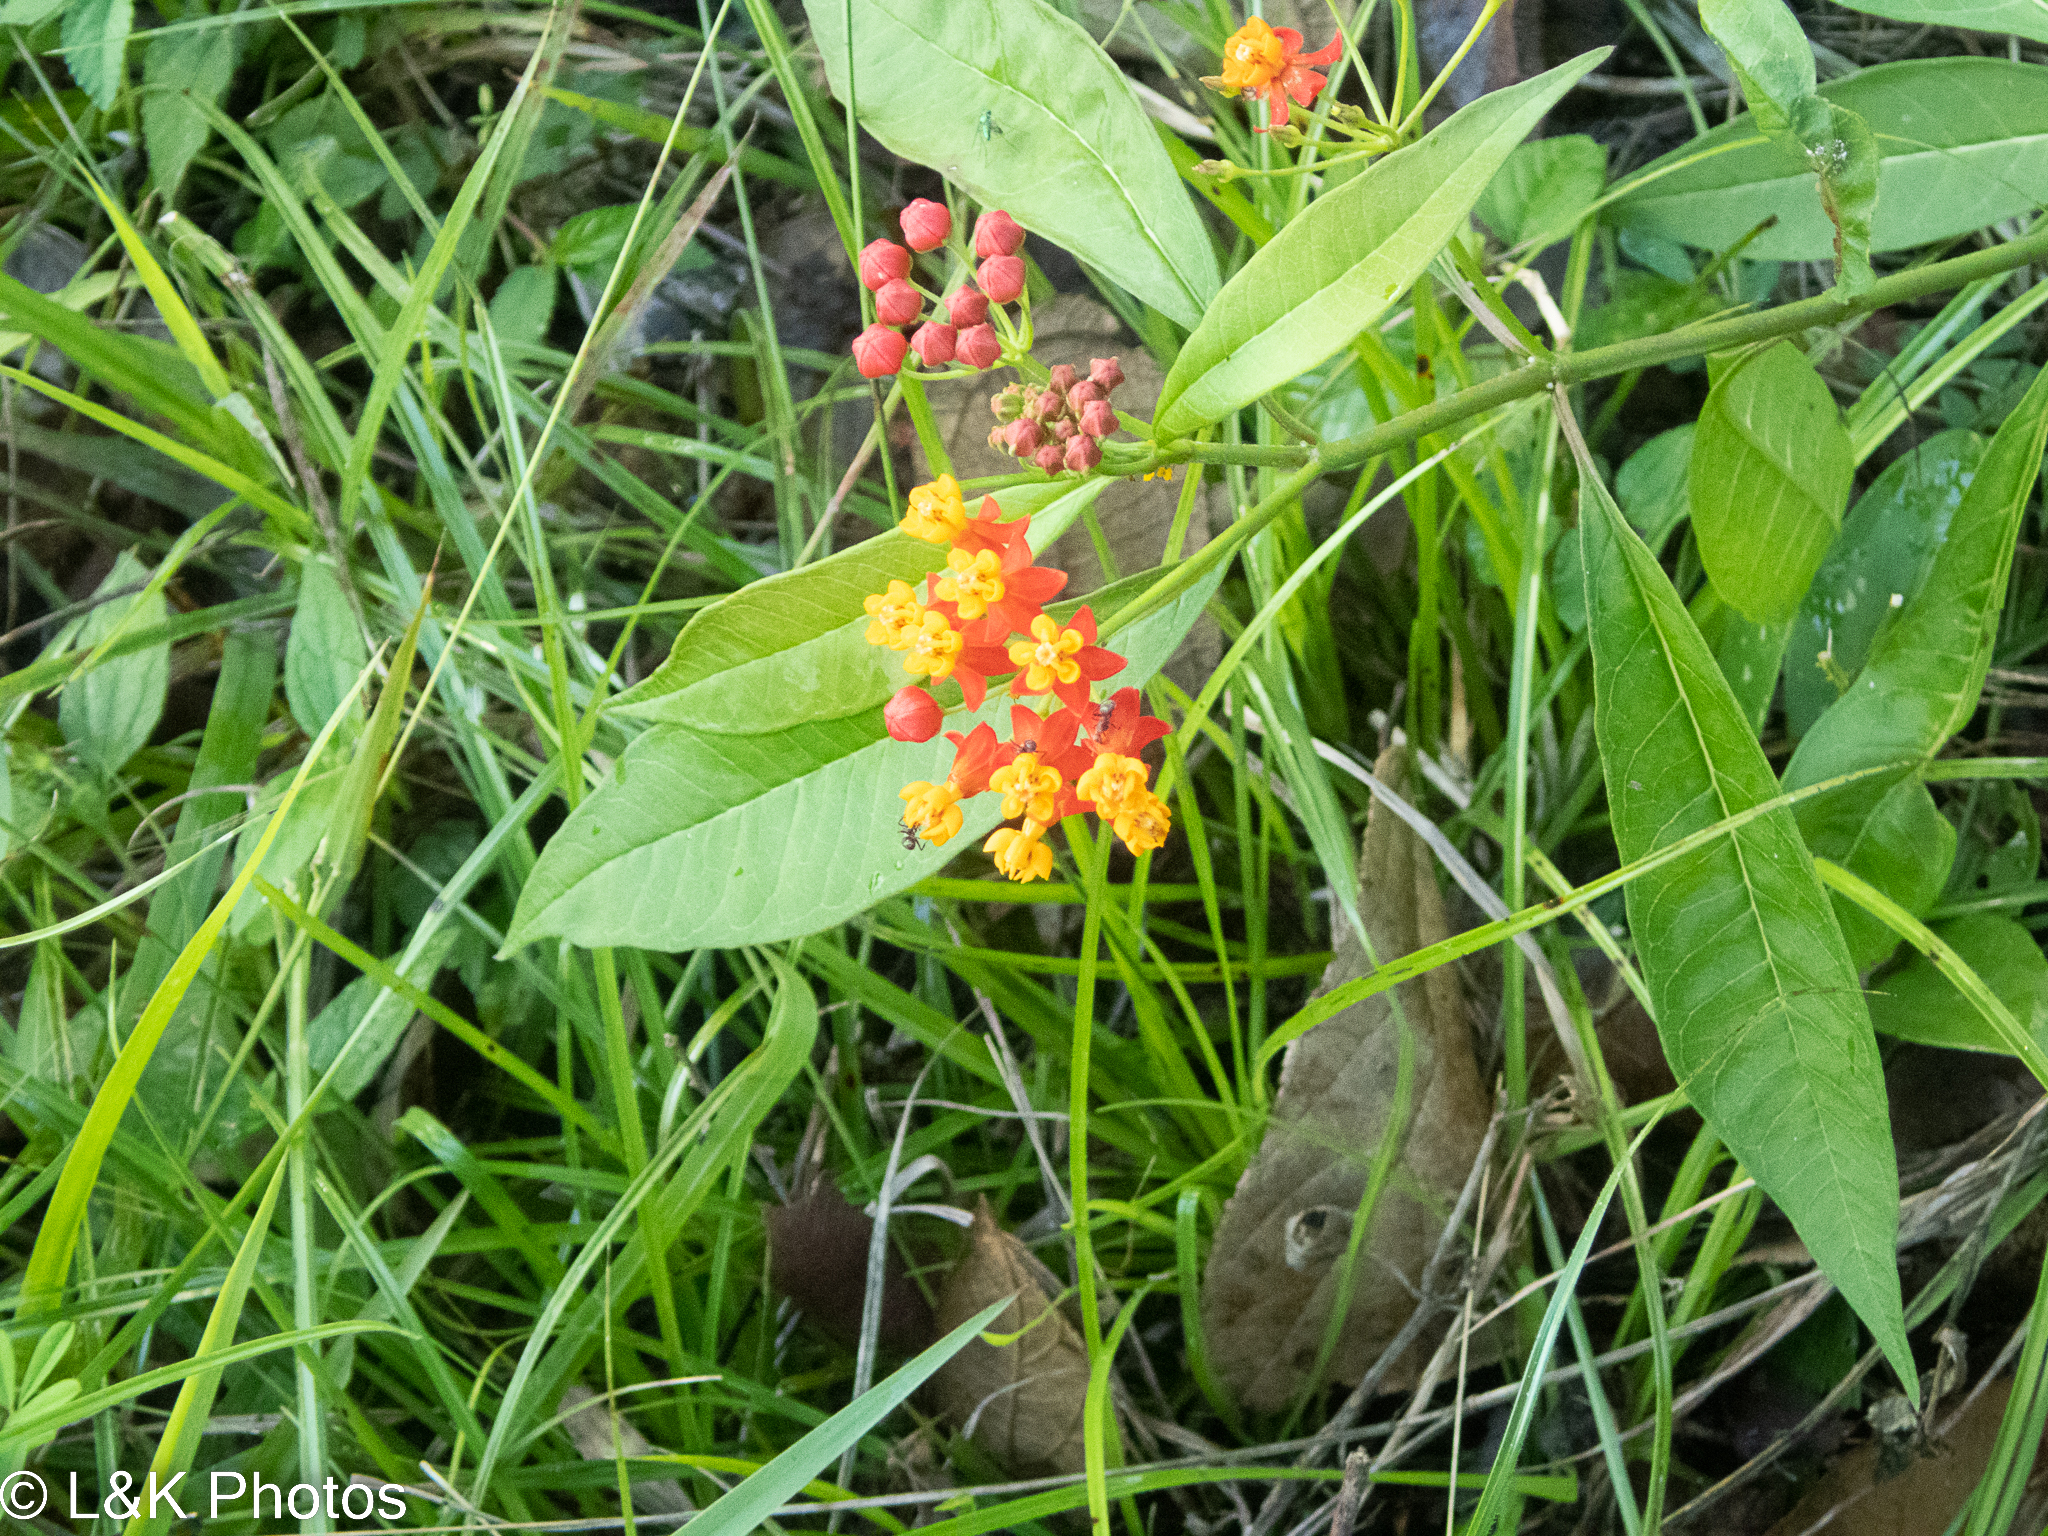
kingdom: Plantae
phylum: Tracheophyta
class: Magnoliopsida
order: Gentianales
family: Apocynaceae
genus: Asclepias
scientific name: Asclepias curassavica
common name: Bloodflower
